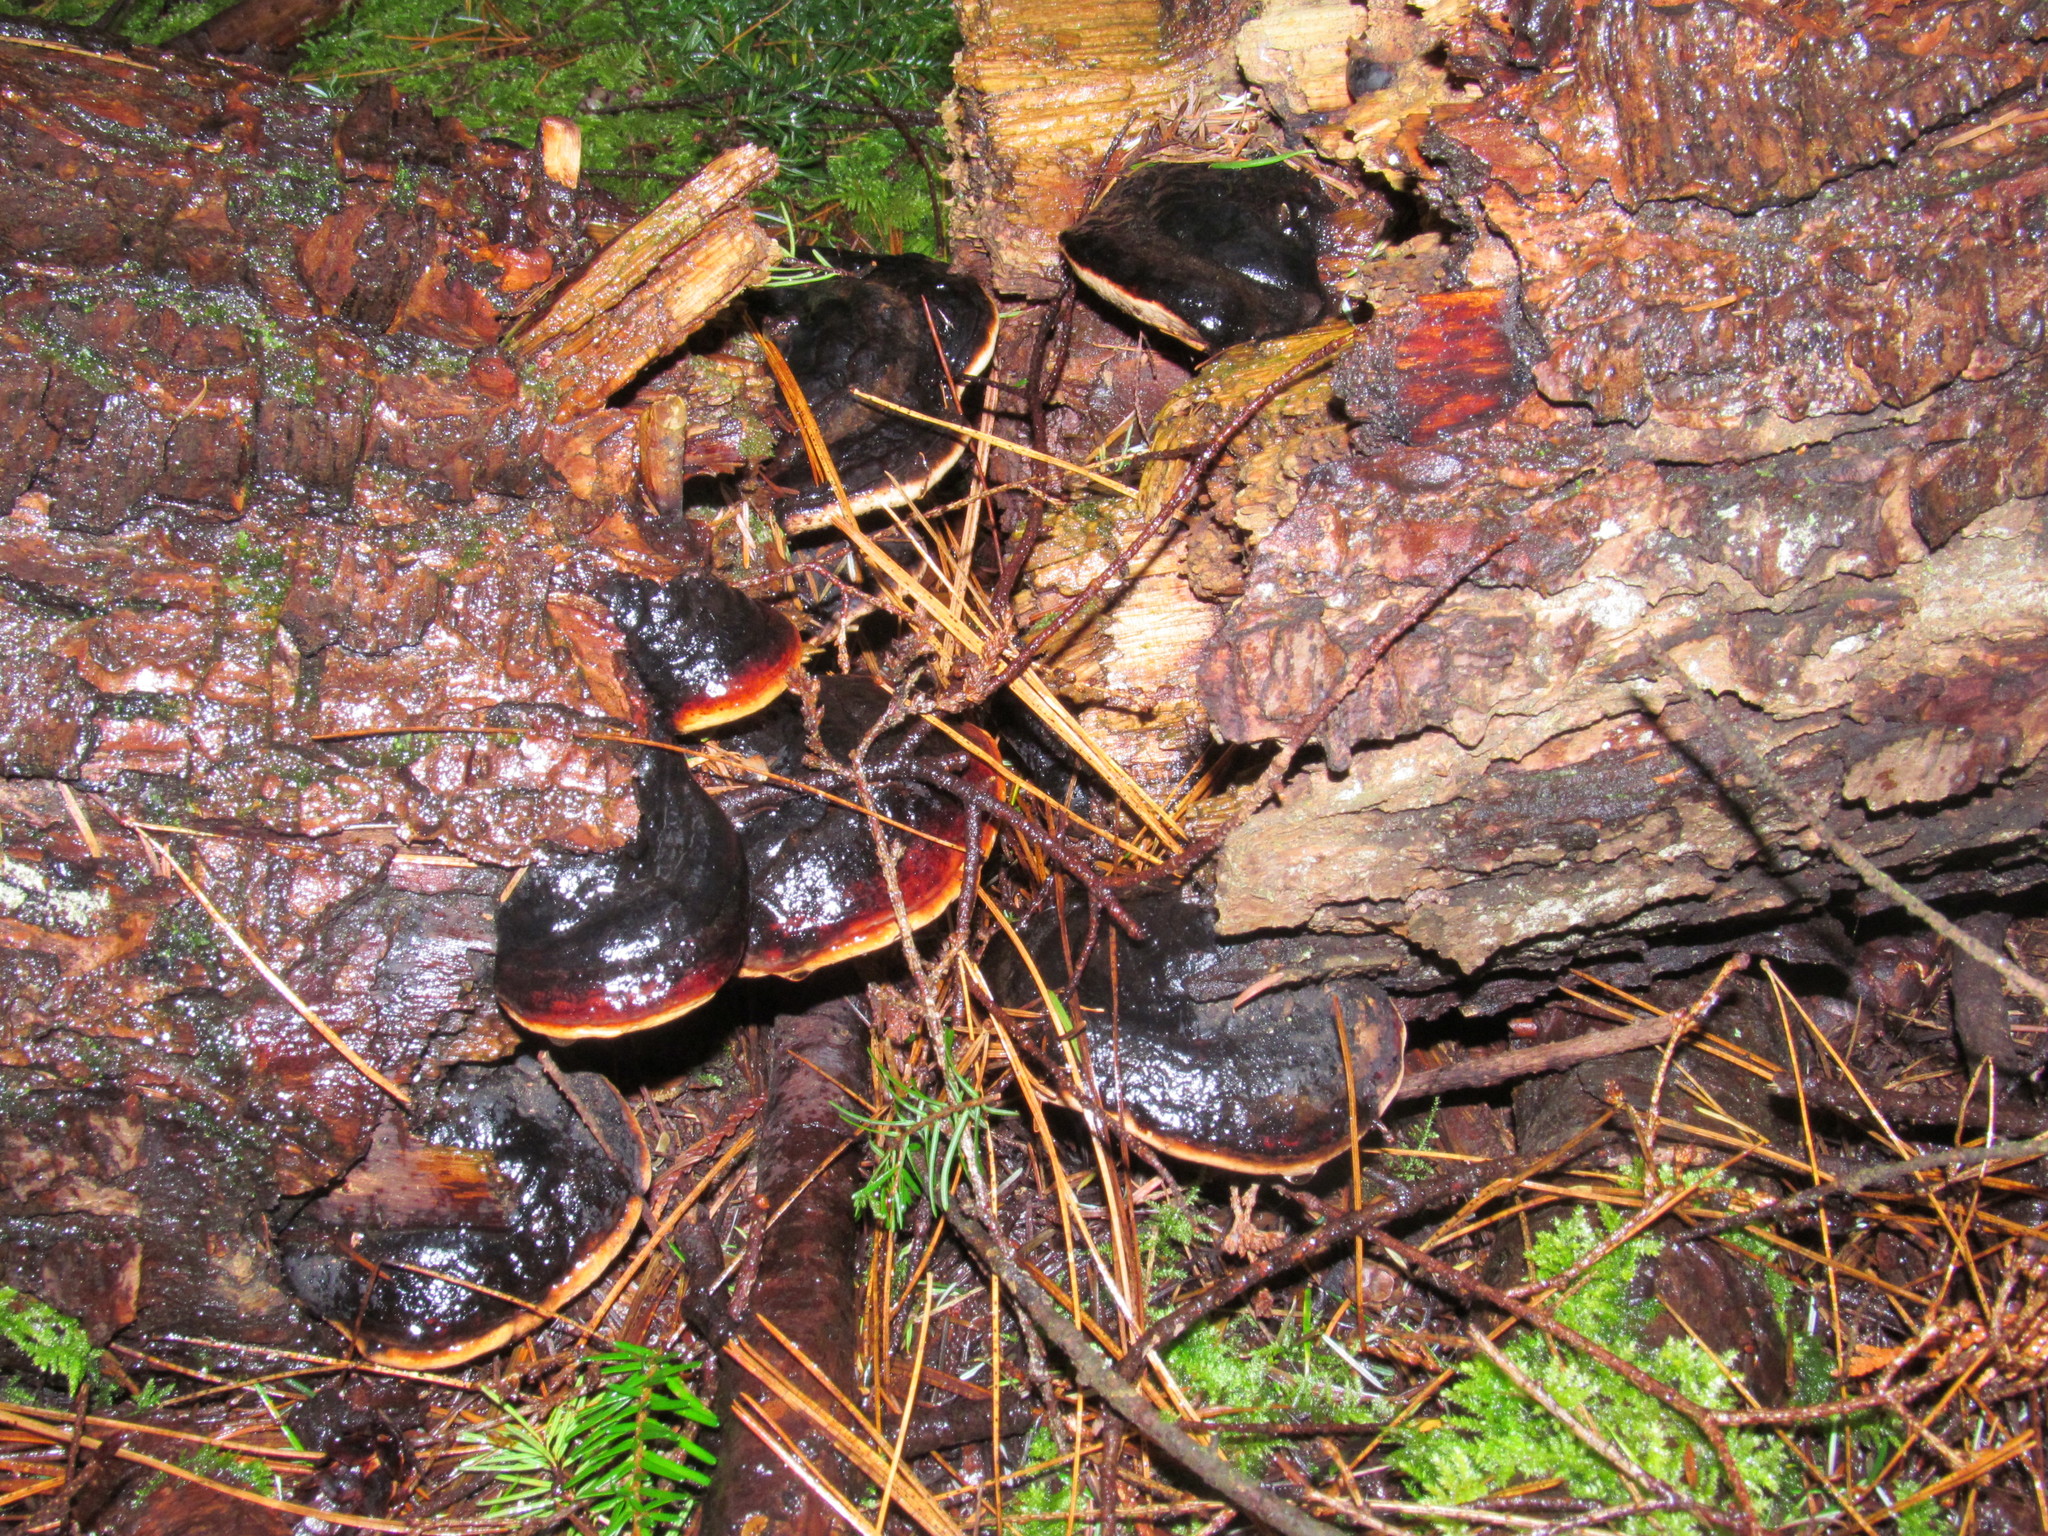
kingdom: Fungi
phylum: Basidiomycota
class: Agaricomycetes
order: Polyporales
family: Fomitopsidaceae
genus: Fomitopsis
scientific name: Fomitopsis mounceae
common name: Northern red belt
